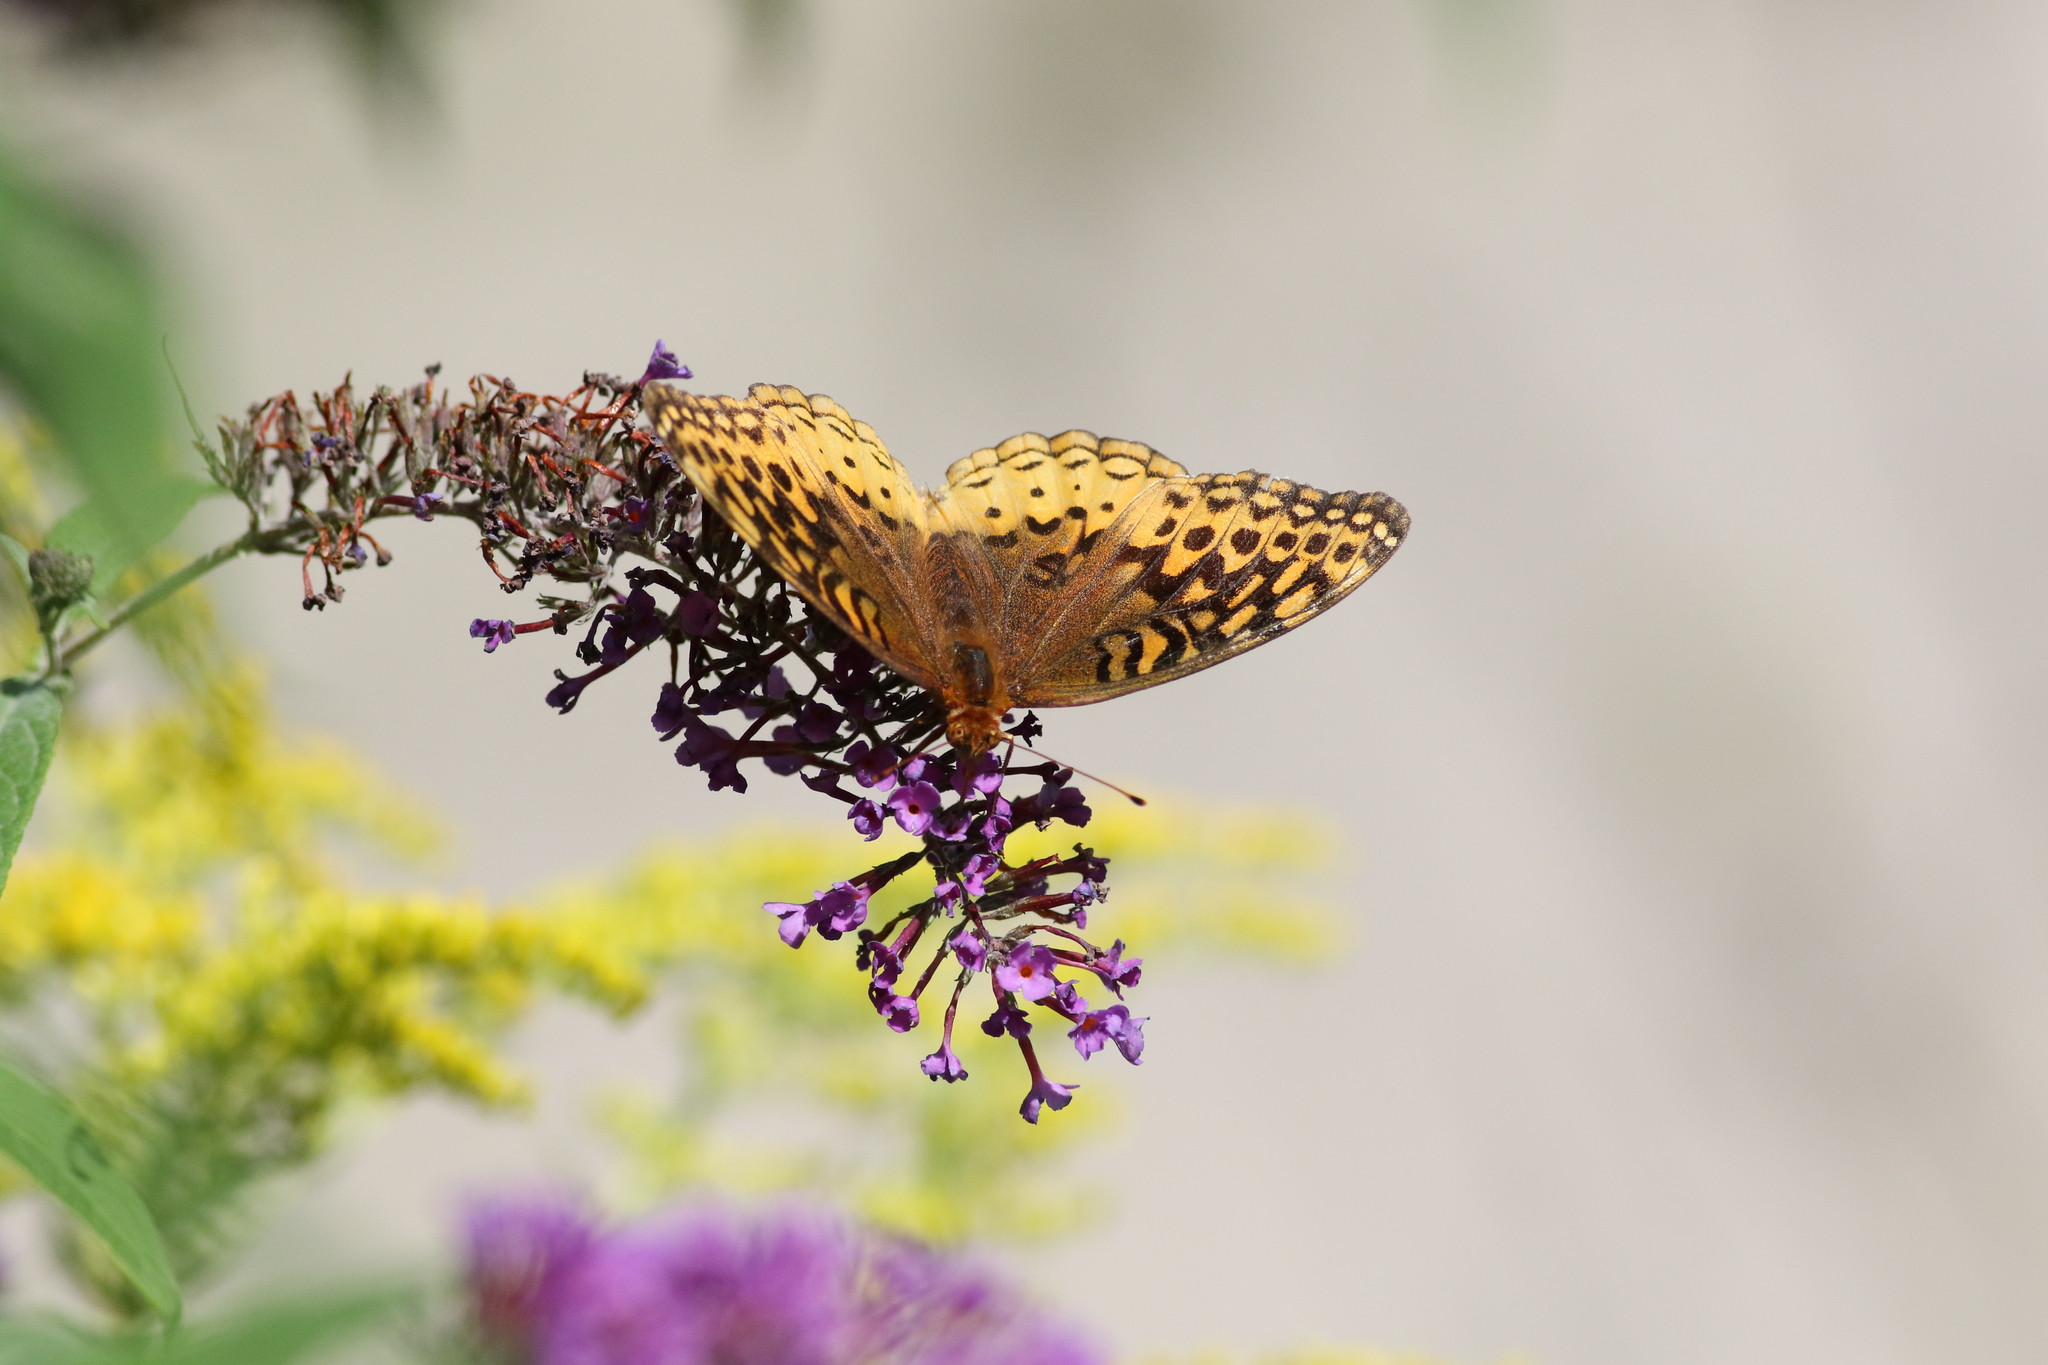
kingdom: Animalia
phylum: Arthropoda
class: Insecta
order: Lepidoptera
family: Nymphalidae
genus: Speyeria
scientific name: Speyeria cybele
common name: Great spangled fritillary
